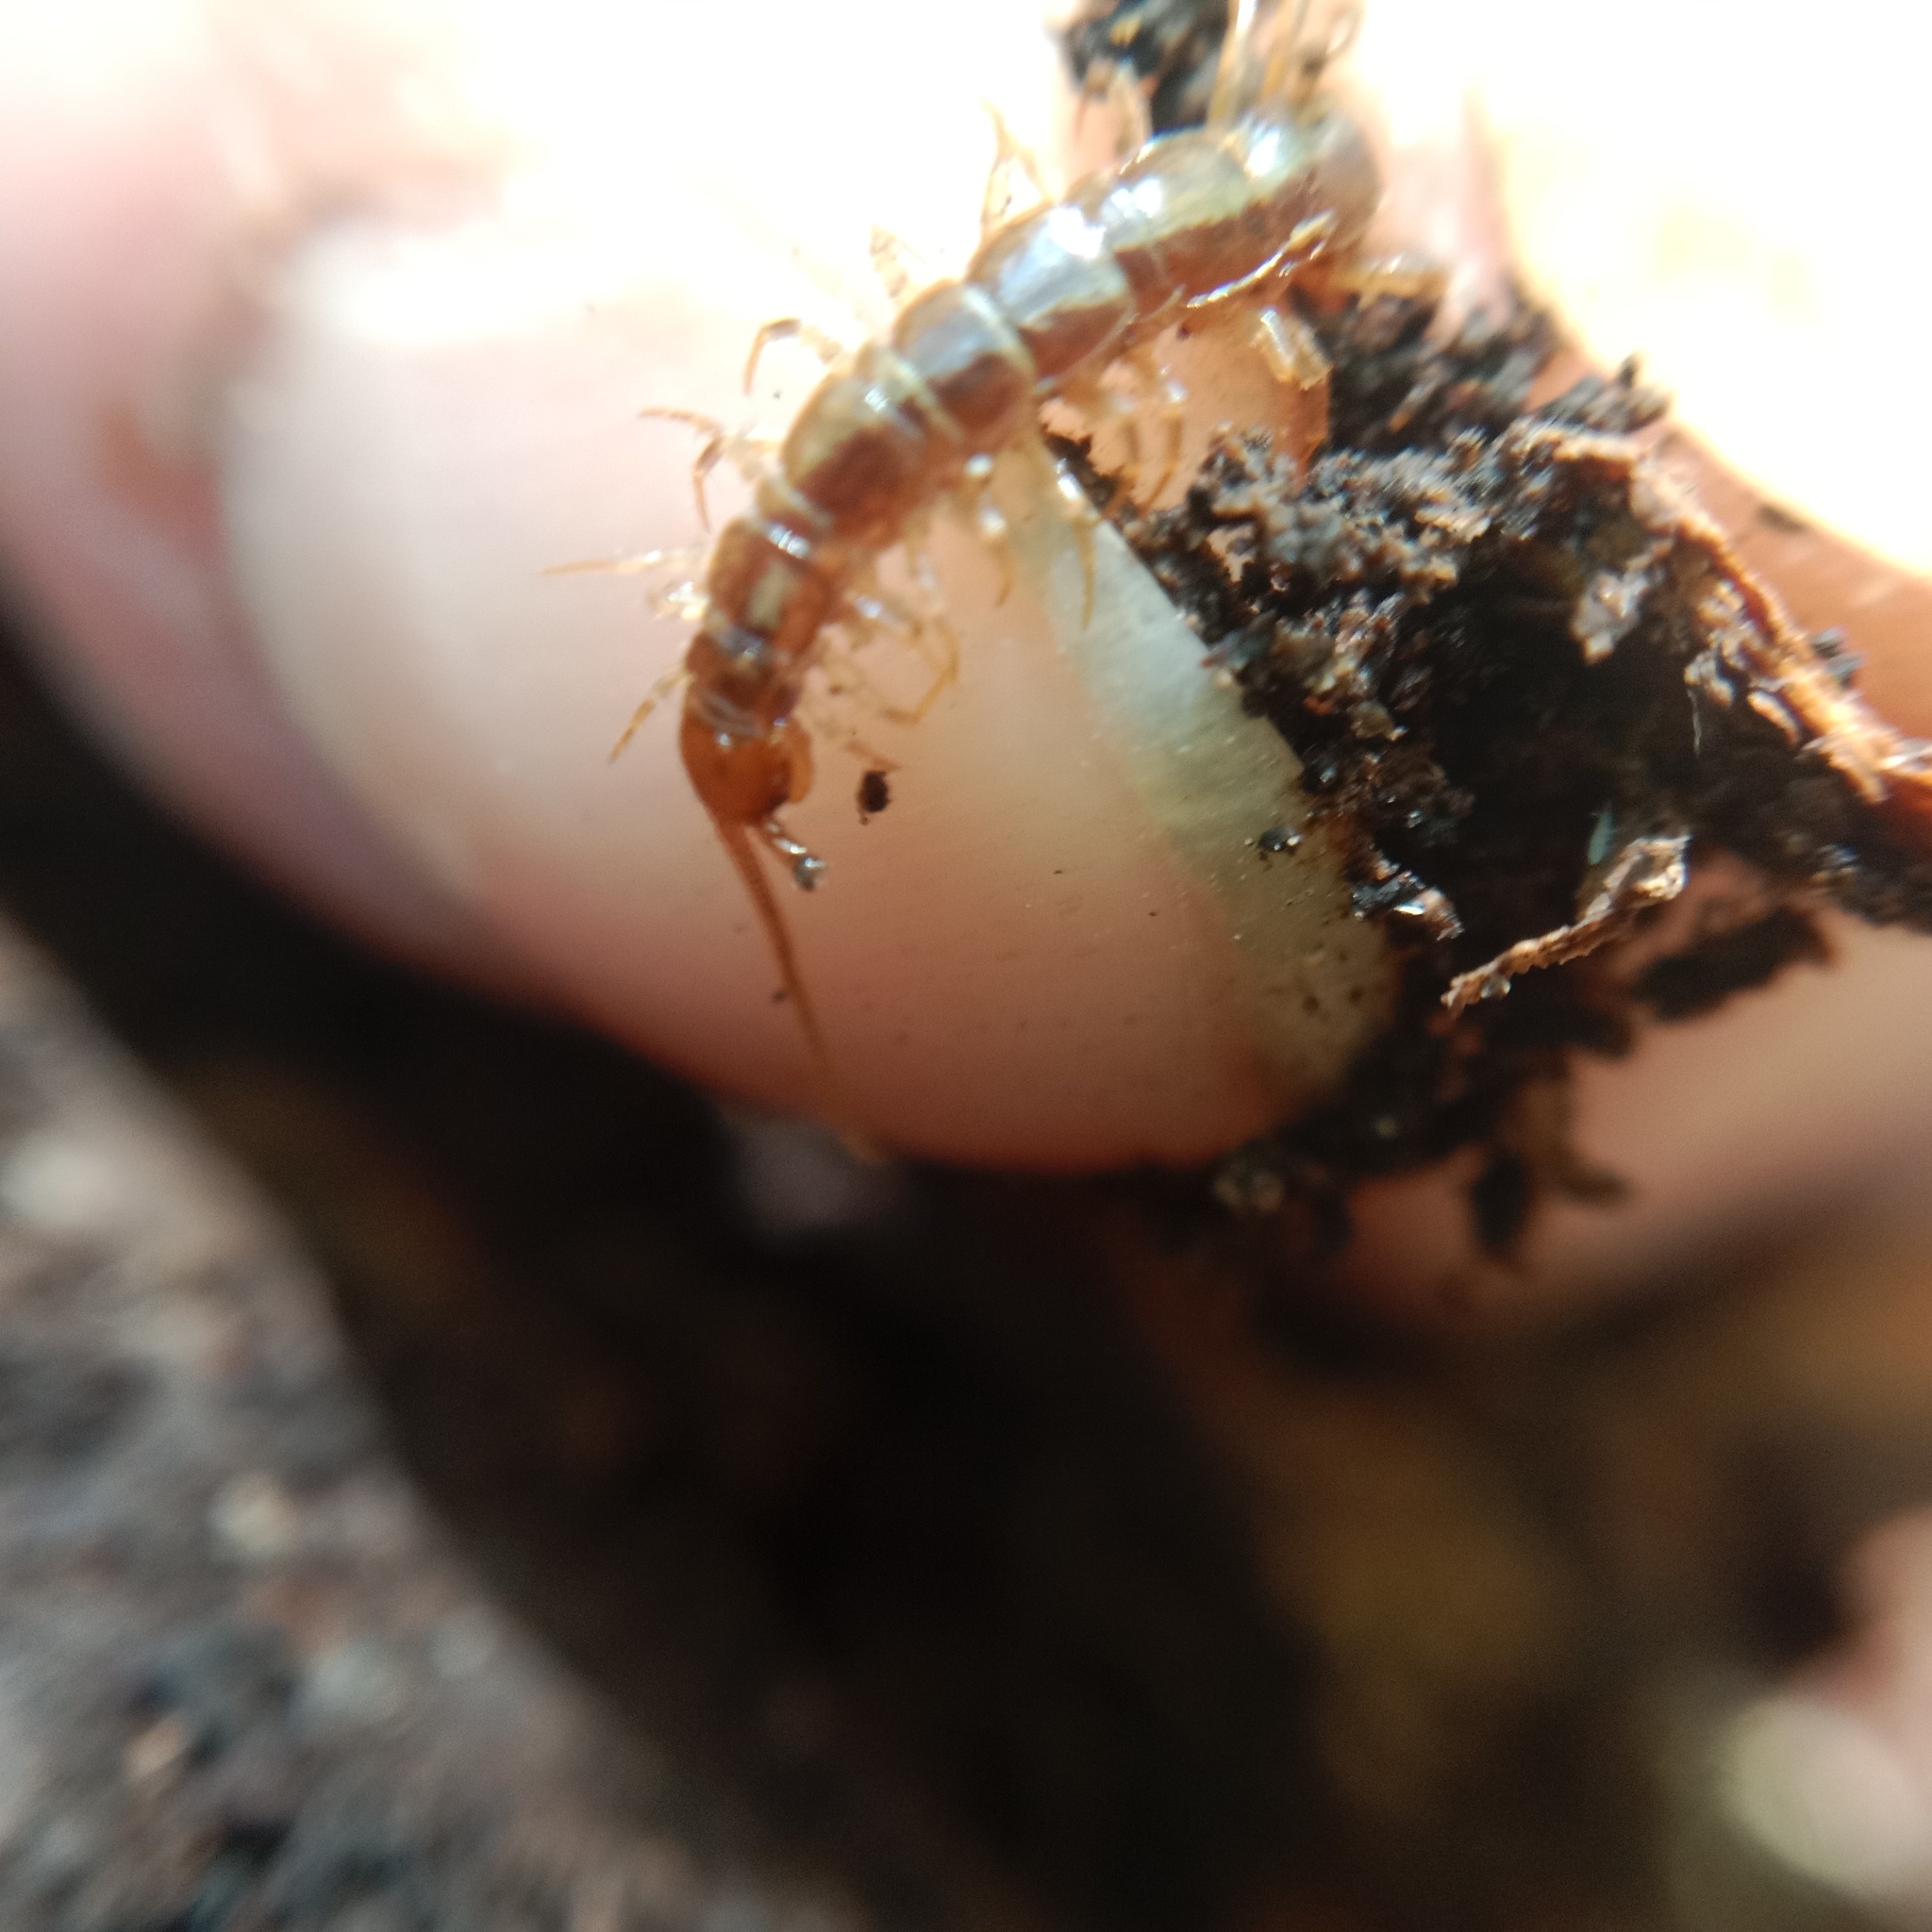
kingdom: Animalia
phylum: Arthropoda
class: Chilopoda
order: Lithobiomorpha
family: Lithobiidae
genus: Lithobius
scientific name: Lithobius forficatus
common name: Centipede
